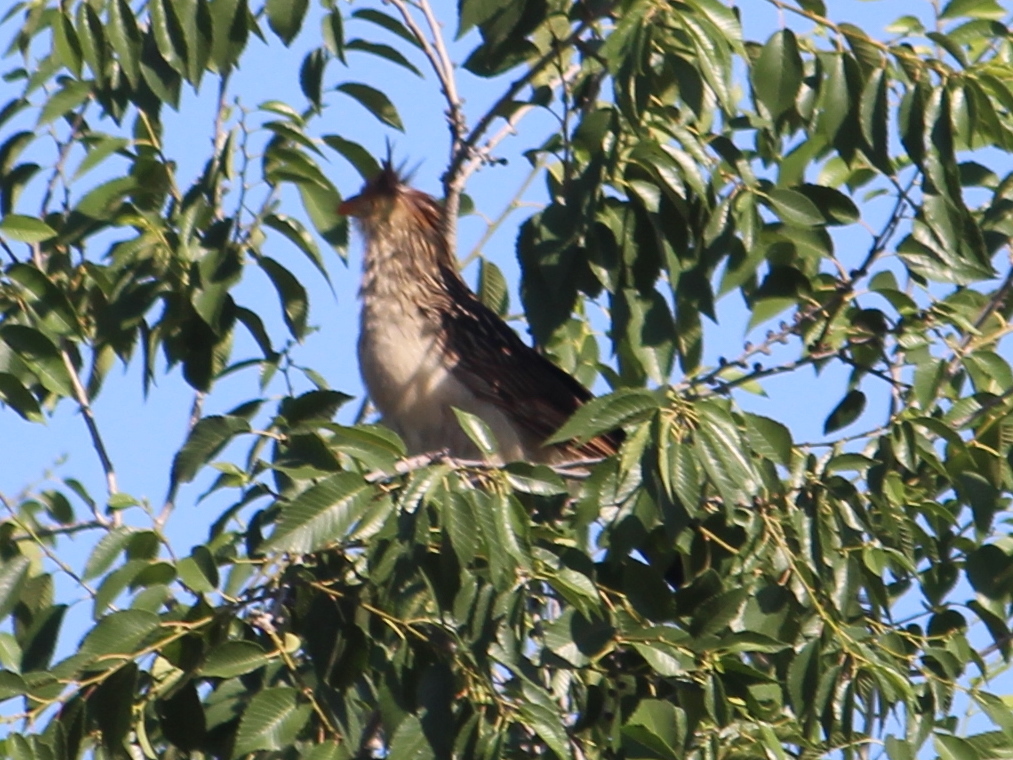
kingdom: Animalia
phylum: Chordata
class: Aves
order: Cuculiformes
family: Cuculidae
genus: Guira
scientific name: Guira guira
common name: Guira cuckoo
